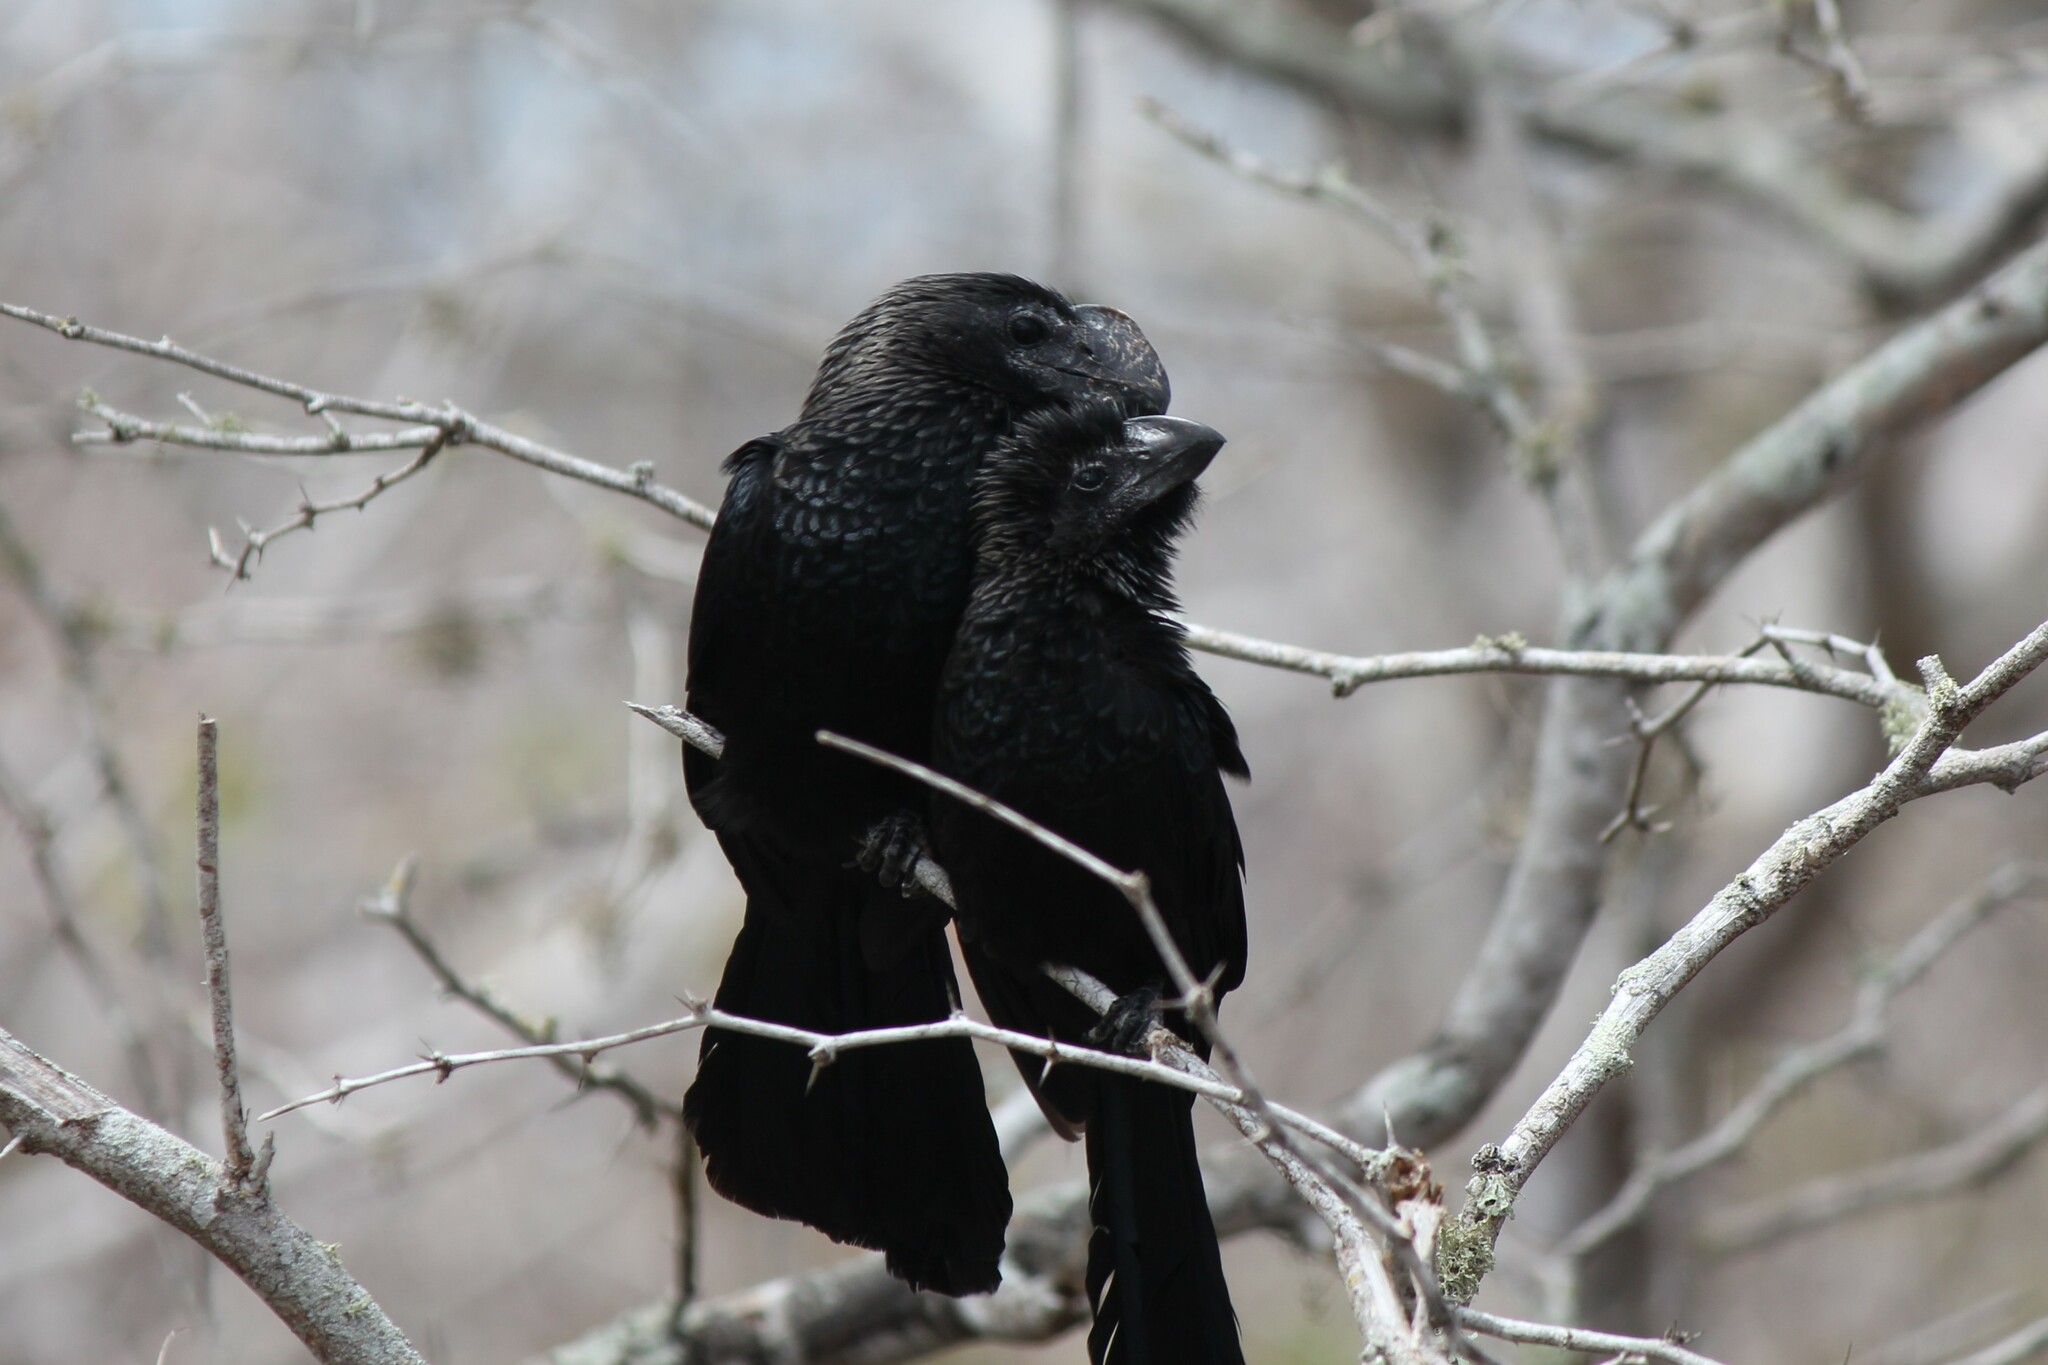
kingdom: Animalia
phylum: Chordata
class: Aves
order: Cuculiformes
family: Cuculidae
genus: Crotophaga
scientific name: Crotophaga ani
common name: Smooth-billed ani
